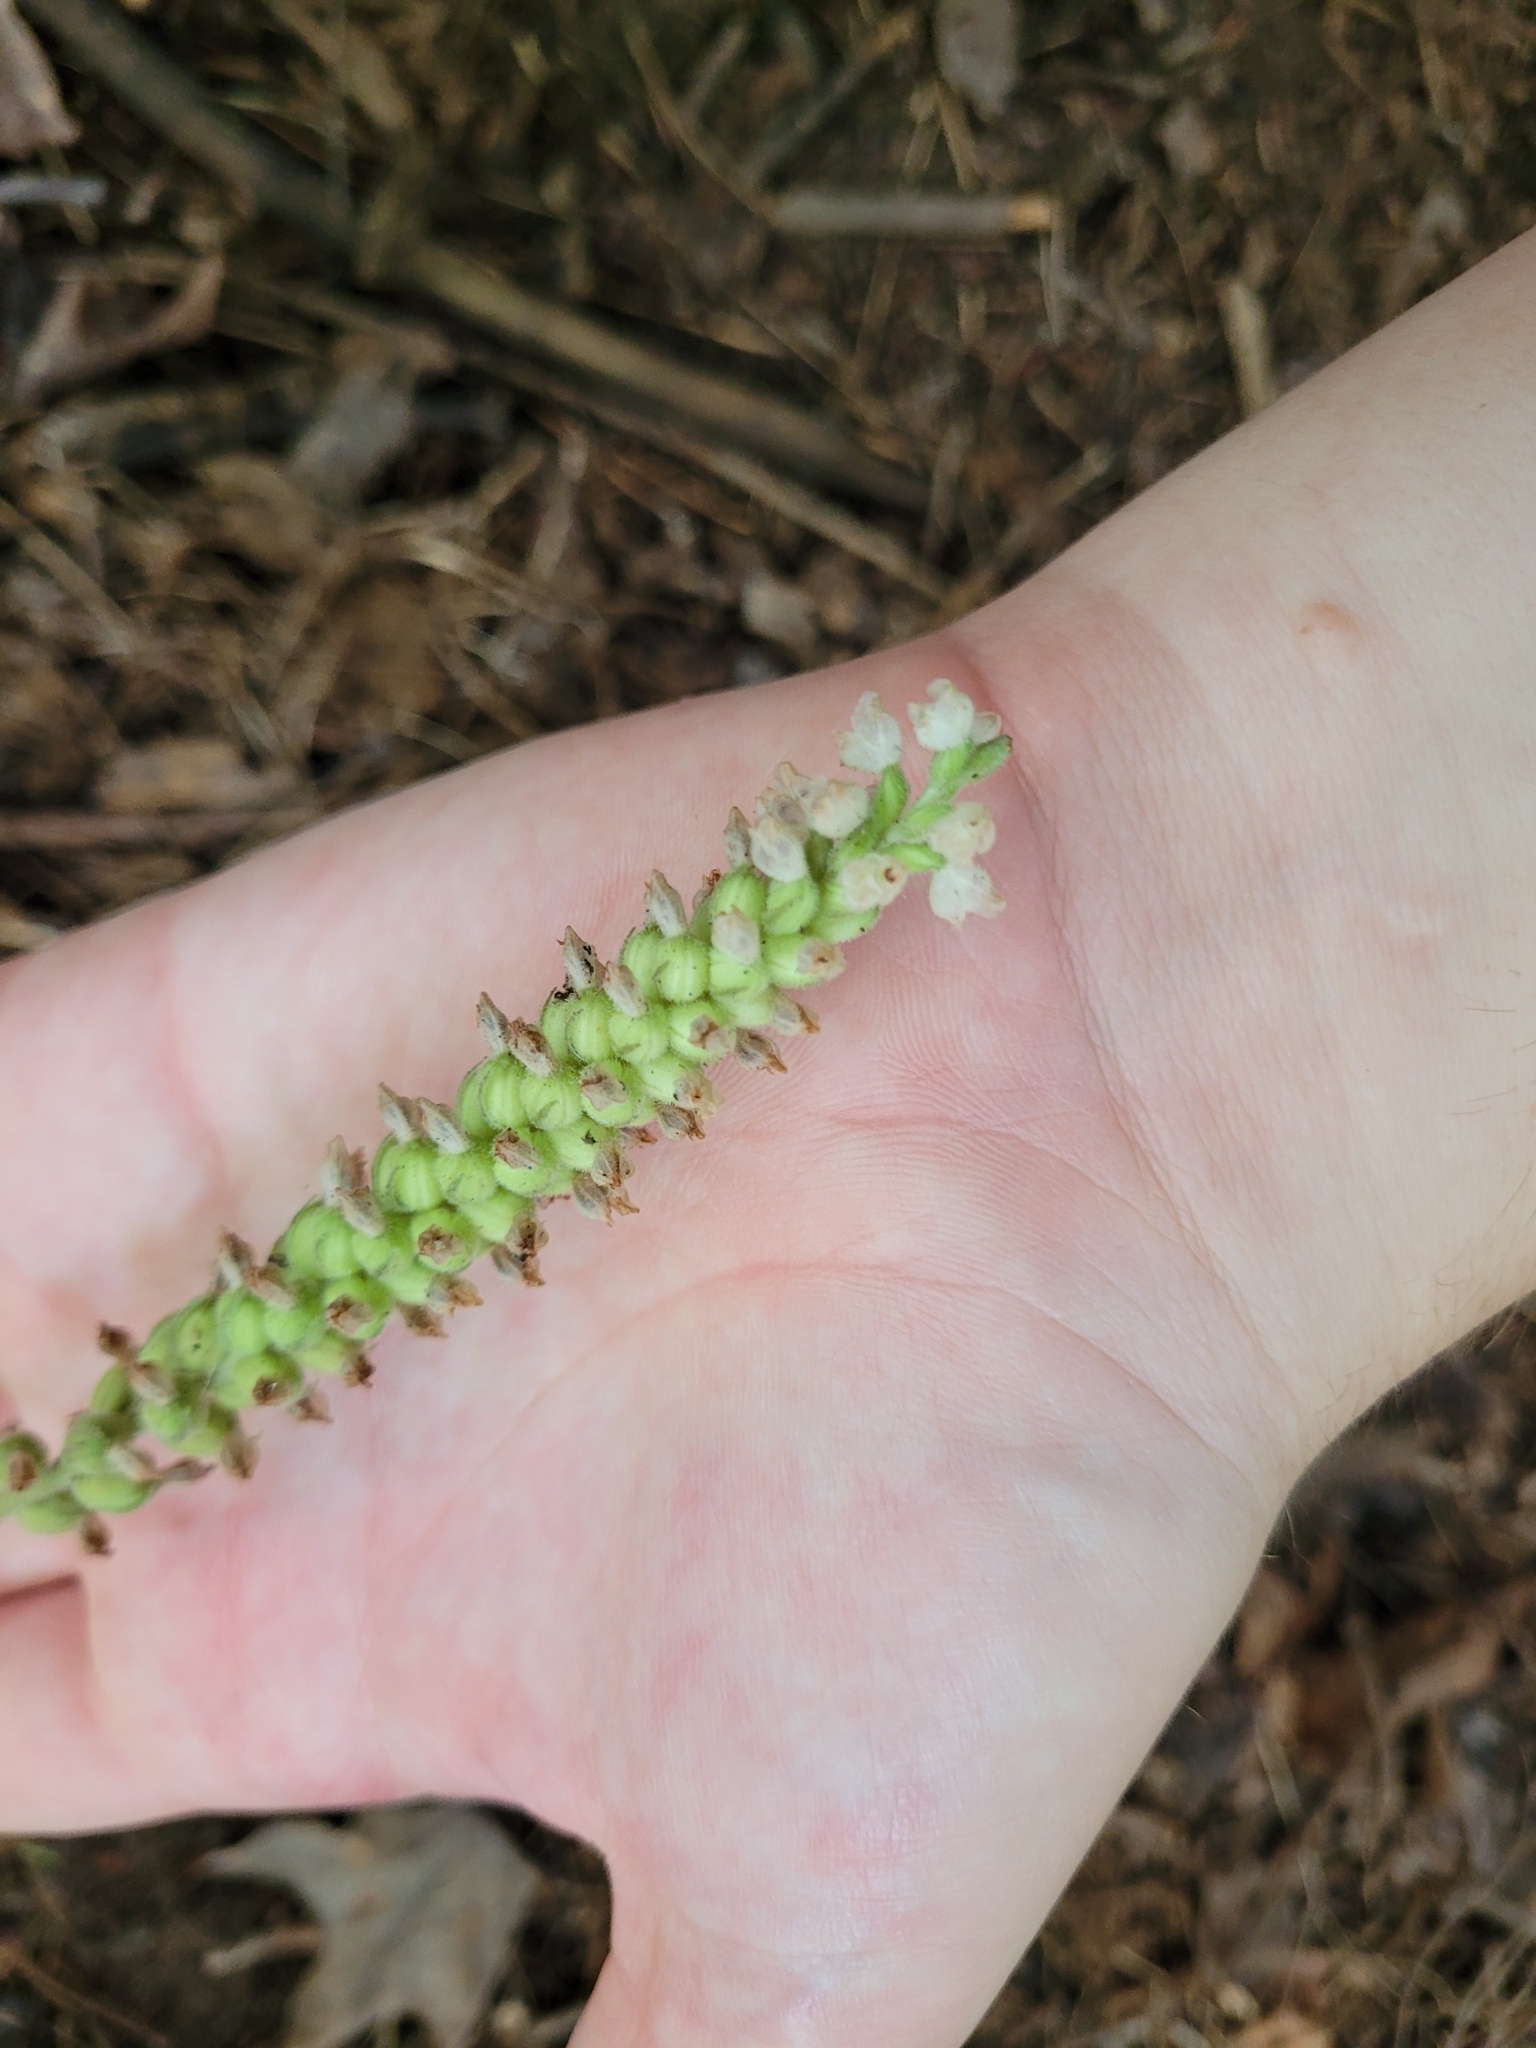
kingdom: Plantae
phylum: Tracheophyta
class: Liliopsida
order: Asparagales
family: Orchidaceae
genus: Goodyera
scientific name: Goodyera pubescens
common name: Downy rattlesnake-plantain
